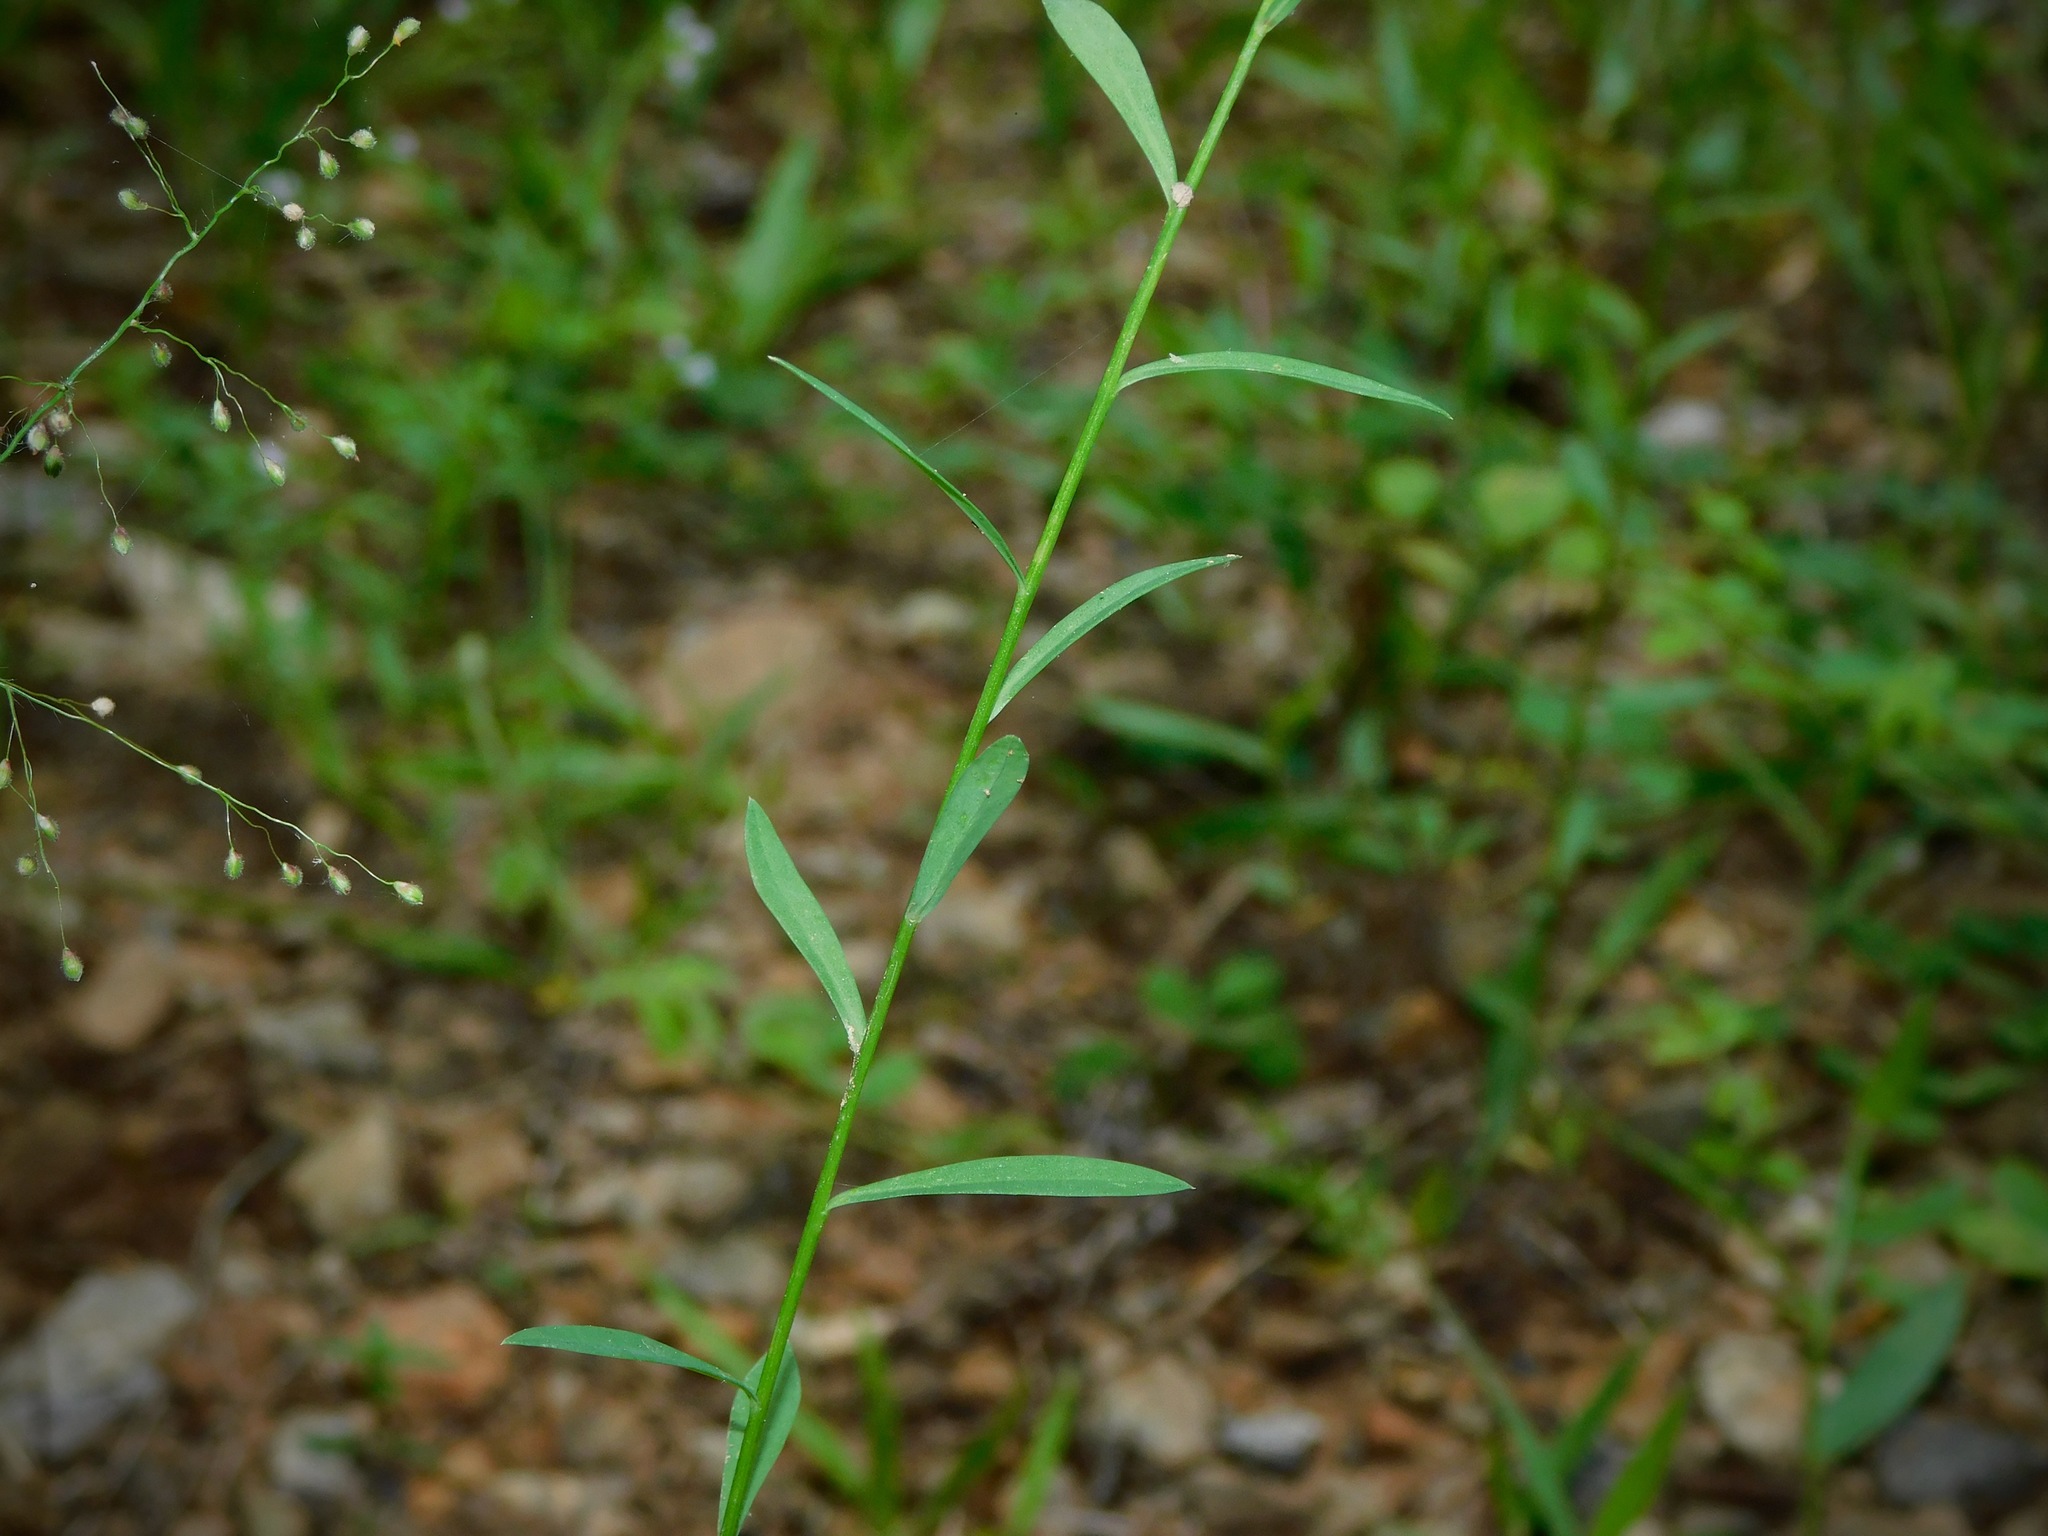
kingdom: Plantae
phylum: Tracheophyta
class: Magnoliopsida
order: Malpighiales
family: Linaceae
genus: Linum
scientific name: Linum virginianum
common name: Slender yellow flax
